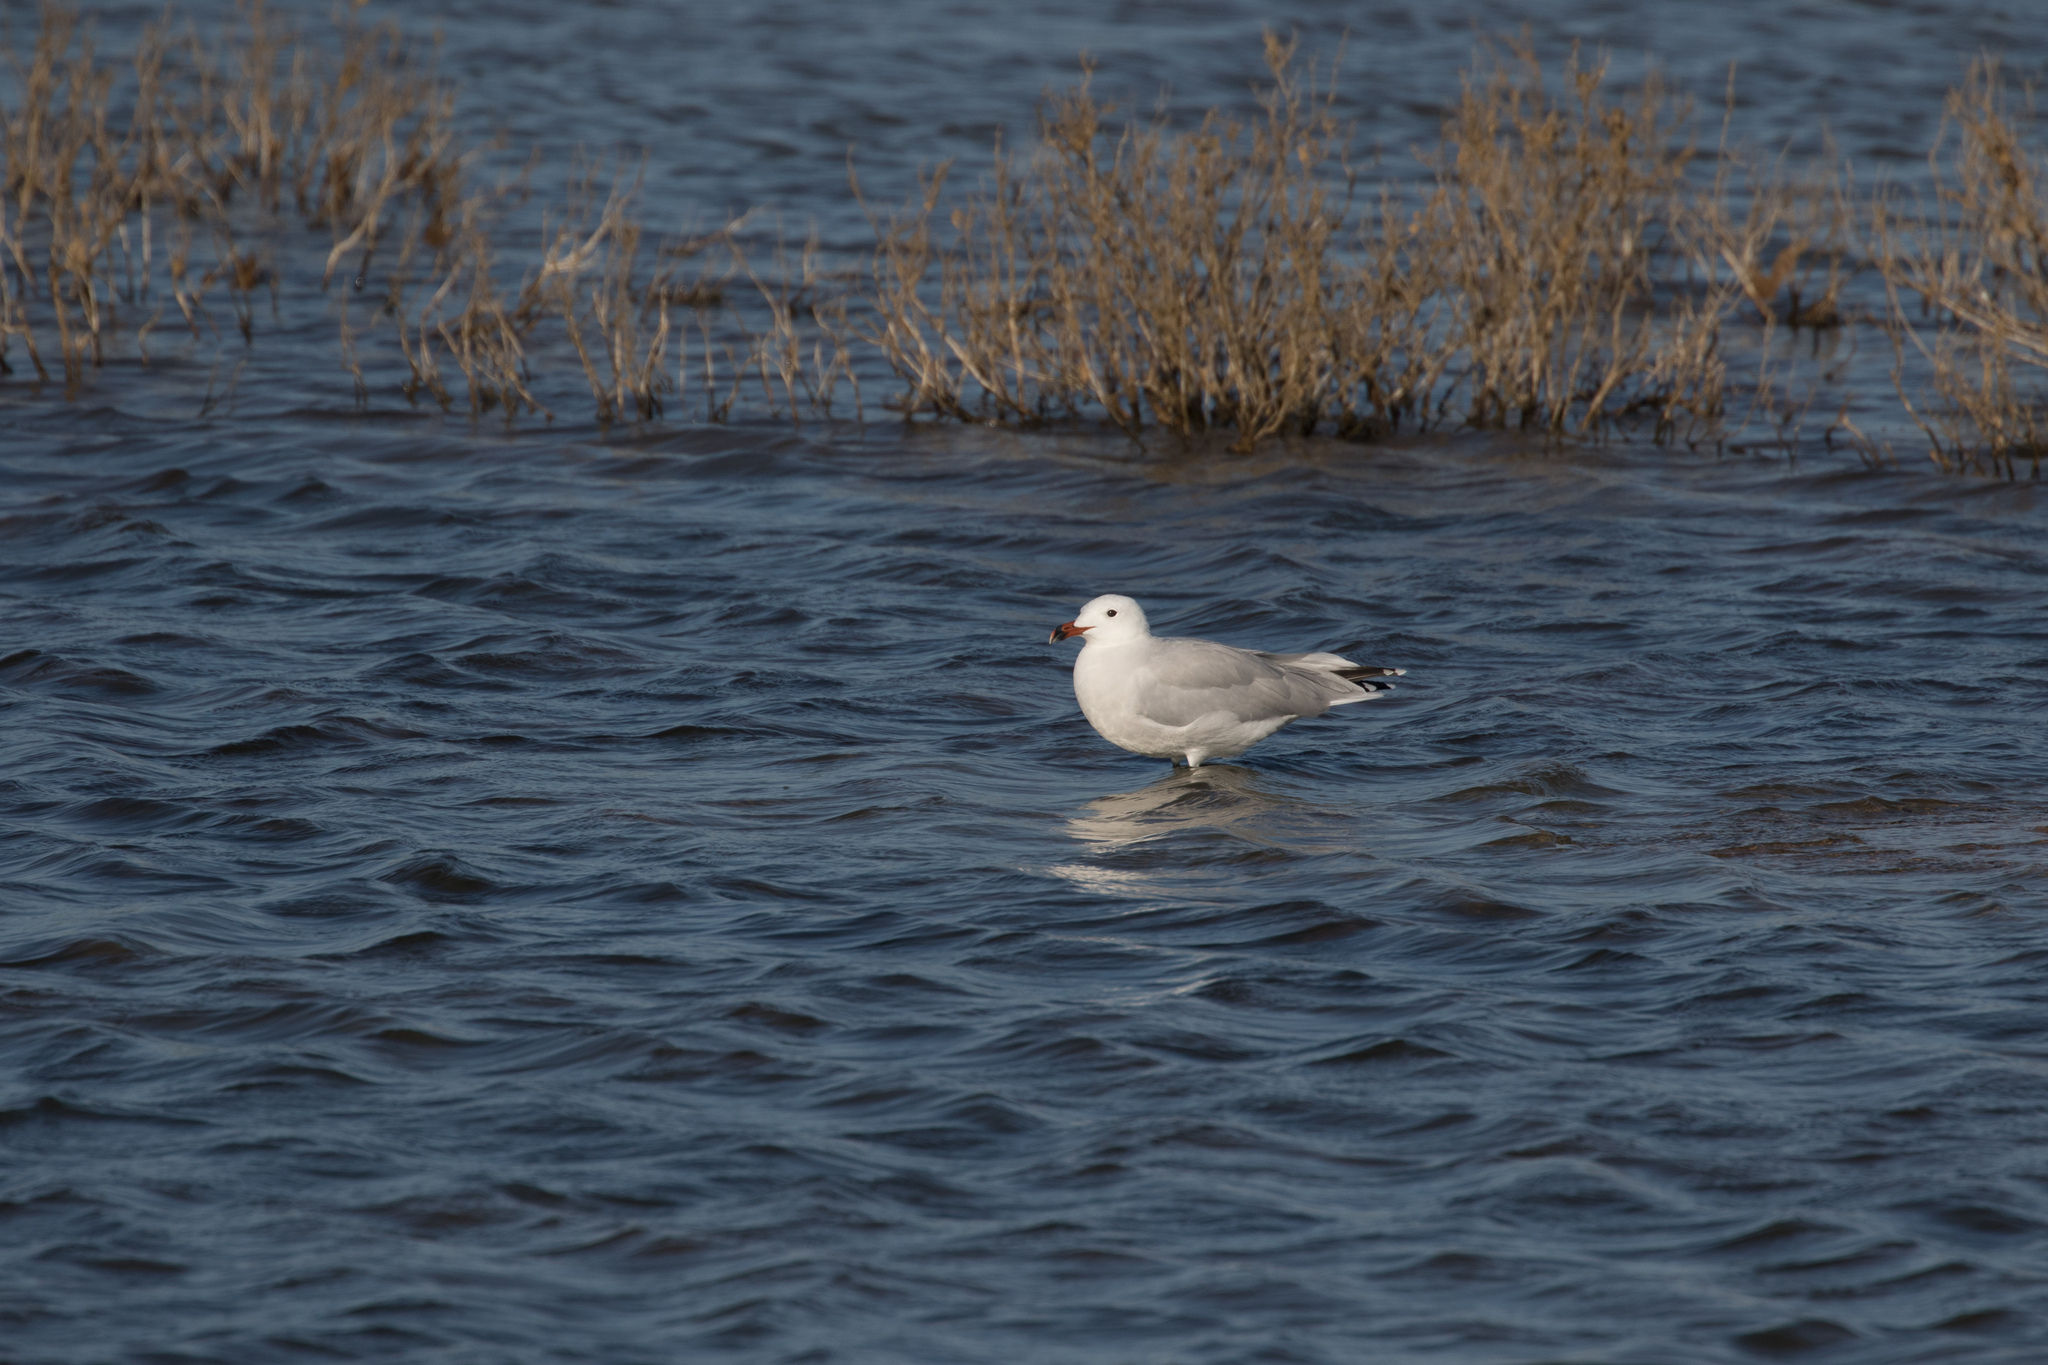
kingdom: Animalia
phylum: Chordata
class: Aves
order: Charadriiformes
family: Laridae
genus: Ichthyaetus
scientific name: Ichthyaetus audouinii
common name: Audouin's gull
